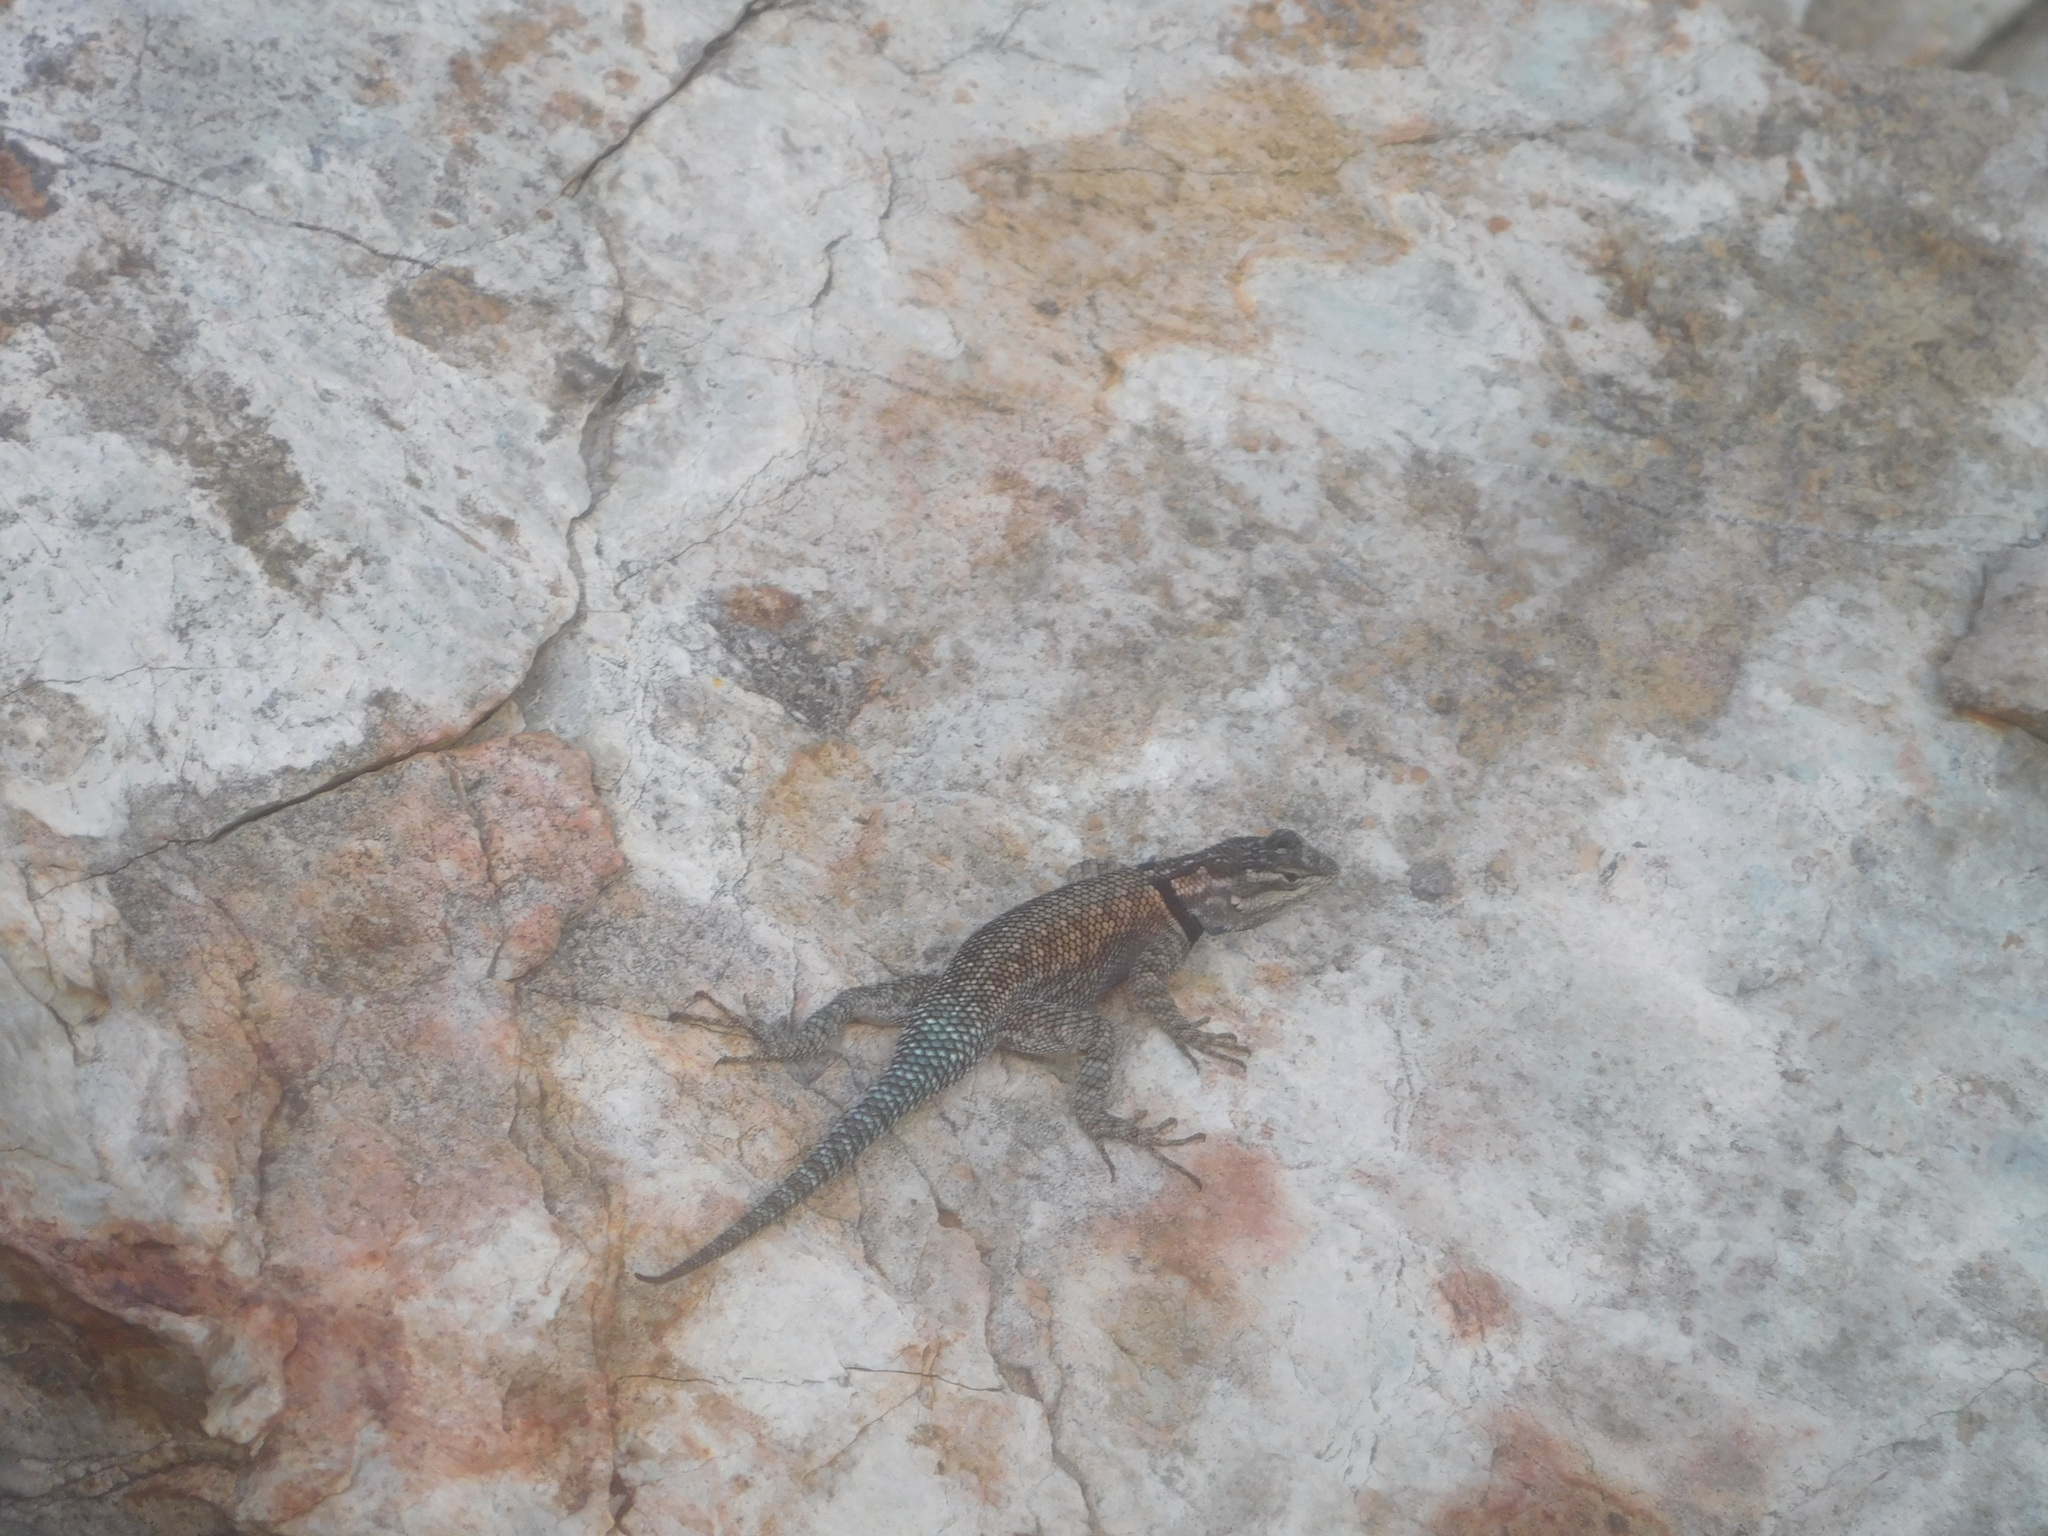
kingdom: Animalia
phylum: Chordata
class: Squamata
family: Phrynosomatidae
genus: Sceloporus
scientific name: Sceloporus jarrovii
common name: Yarrow's spiny lizard
